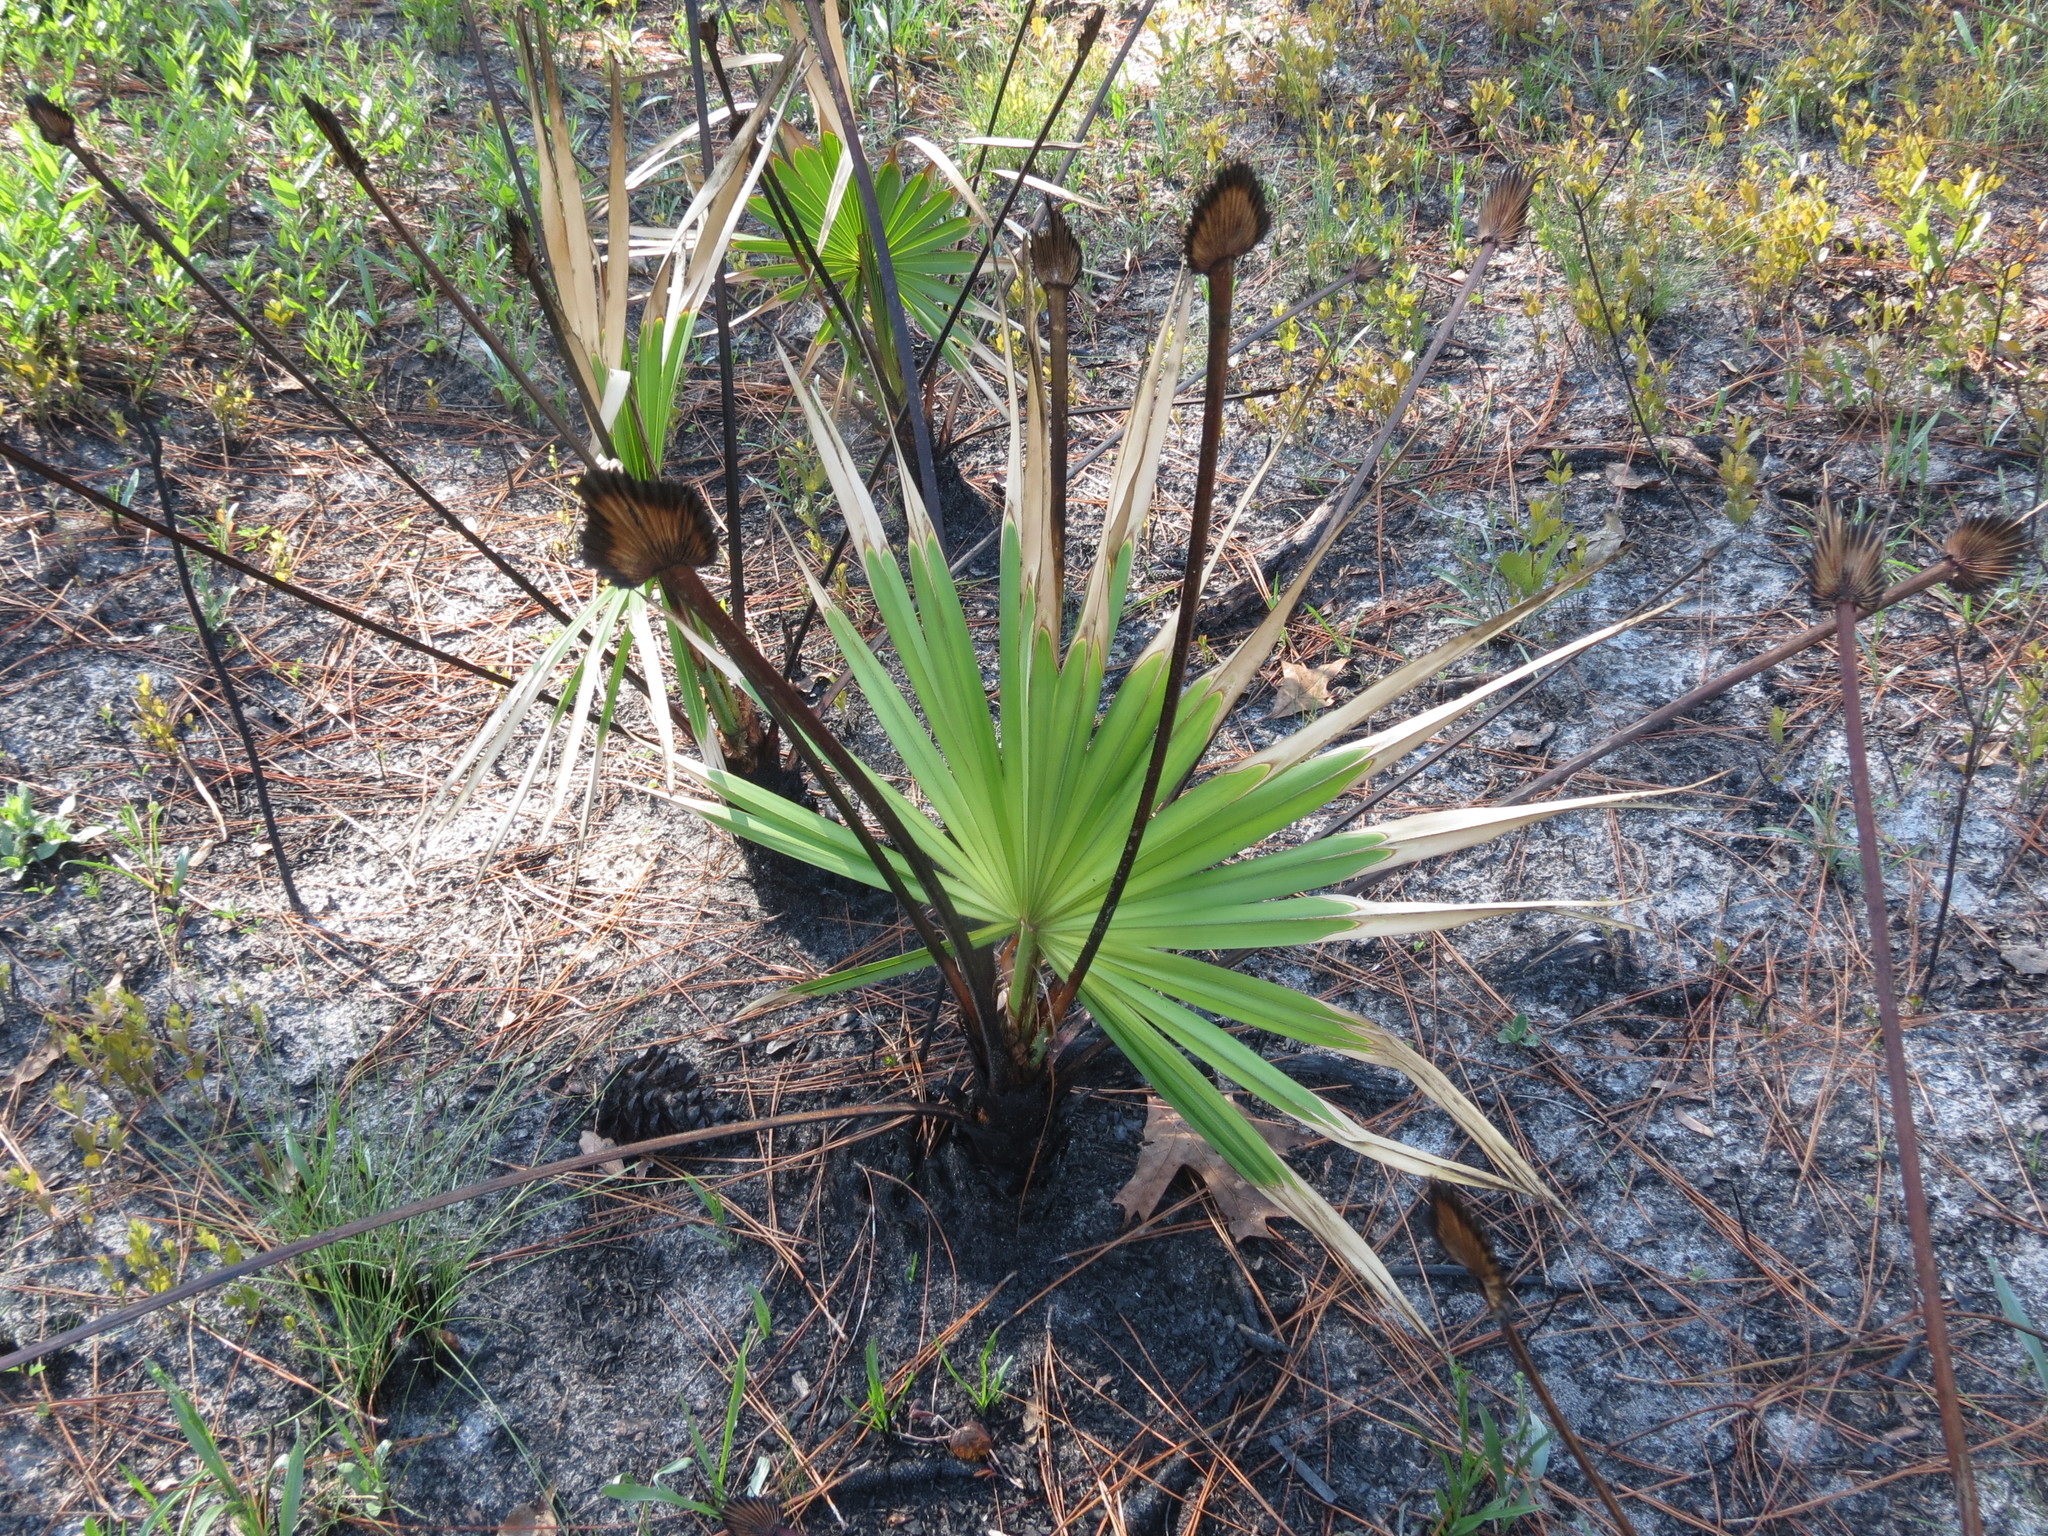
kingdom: Plantae
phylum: Tracheophyta
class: Liliopsida
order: Arecales
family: Arecaceae
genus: Serenoa
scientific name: Serenoa repens
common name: Saw-palmetto
